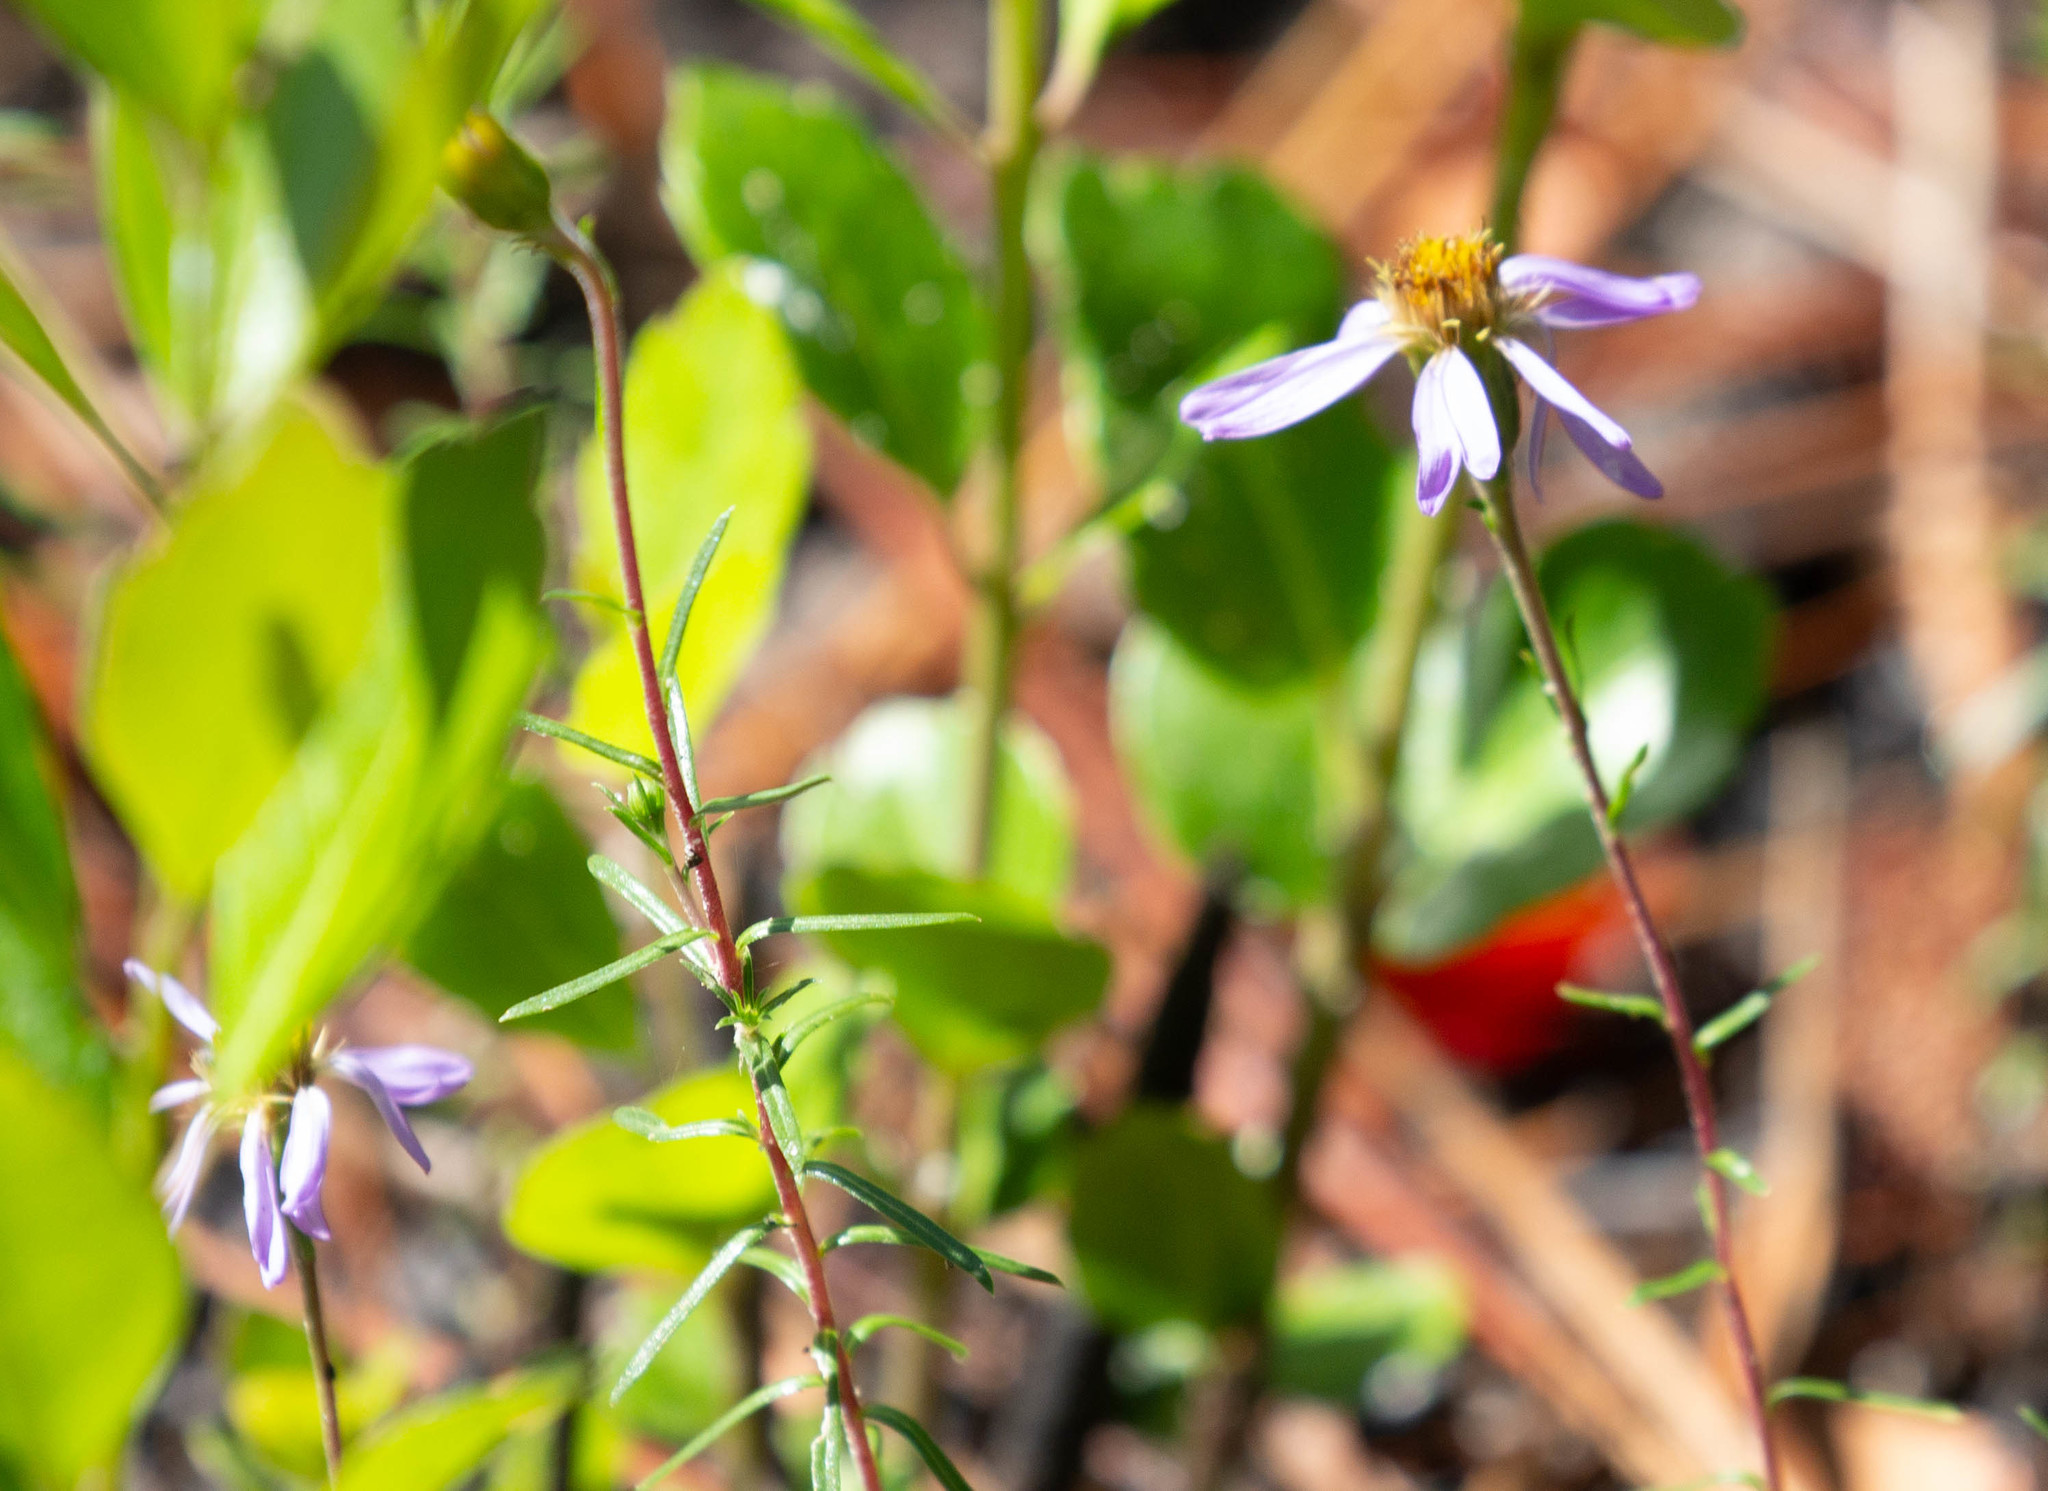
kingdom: Plantae
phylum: Tracheophyta
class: Magnoliopsida
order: Asterales
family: Asteraceae
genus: Ionactis
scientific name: Ionactis repens
